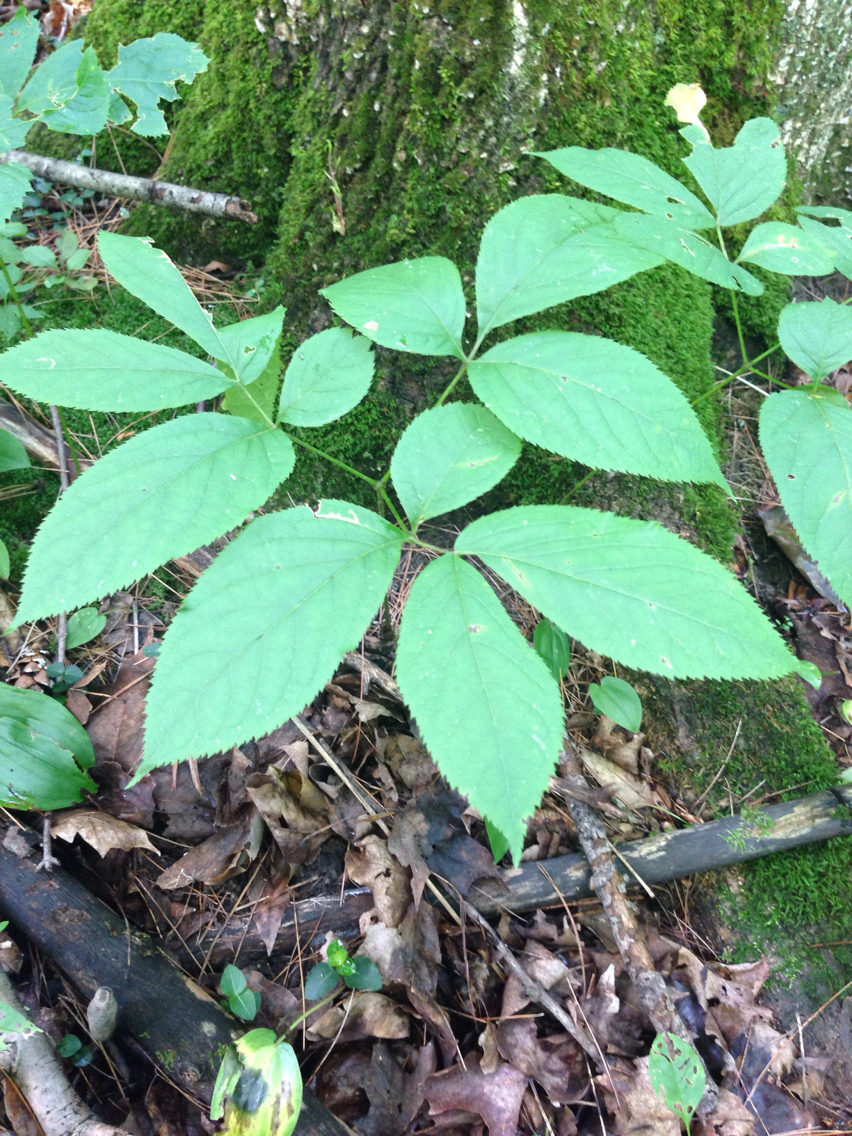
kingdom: Plantae
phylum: Tracheophyta
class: Magnoliopsida
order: Apiales
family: Araliaceae
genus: Aralia
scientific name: Aralia nudicaulis
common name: Wild sarsaparilla
